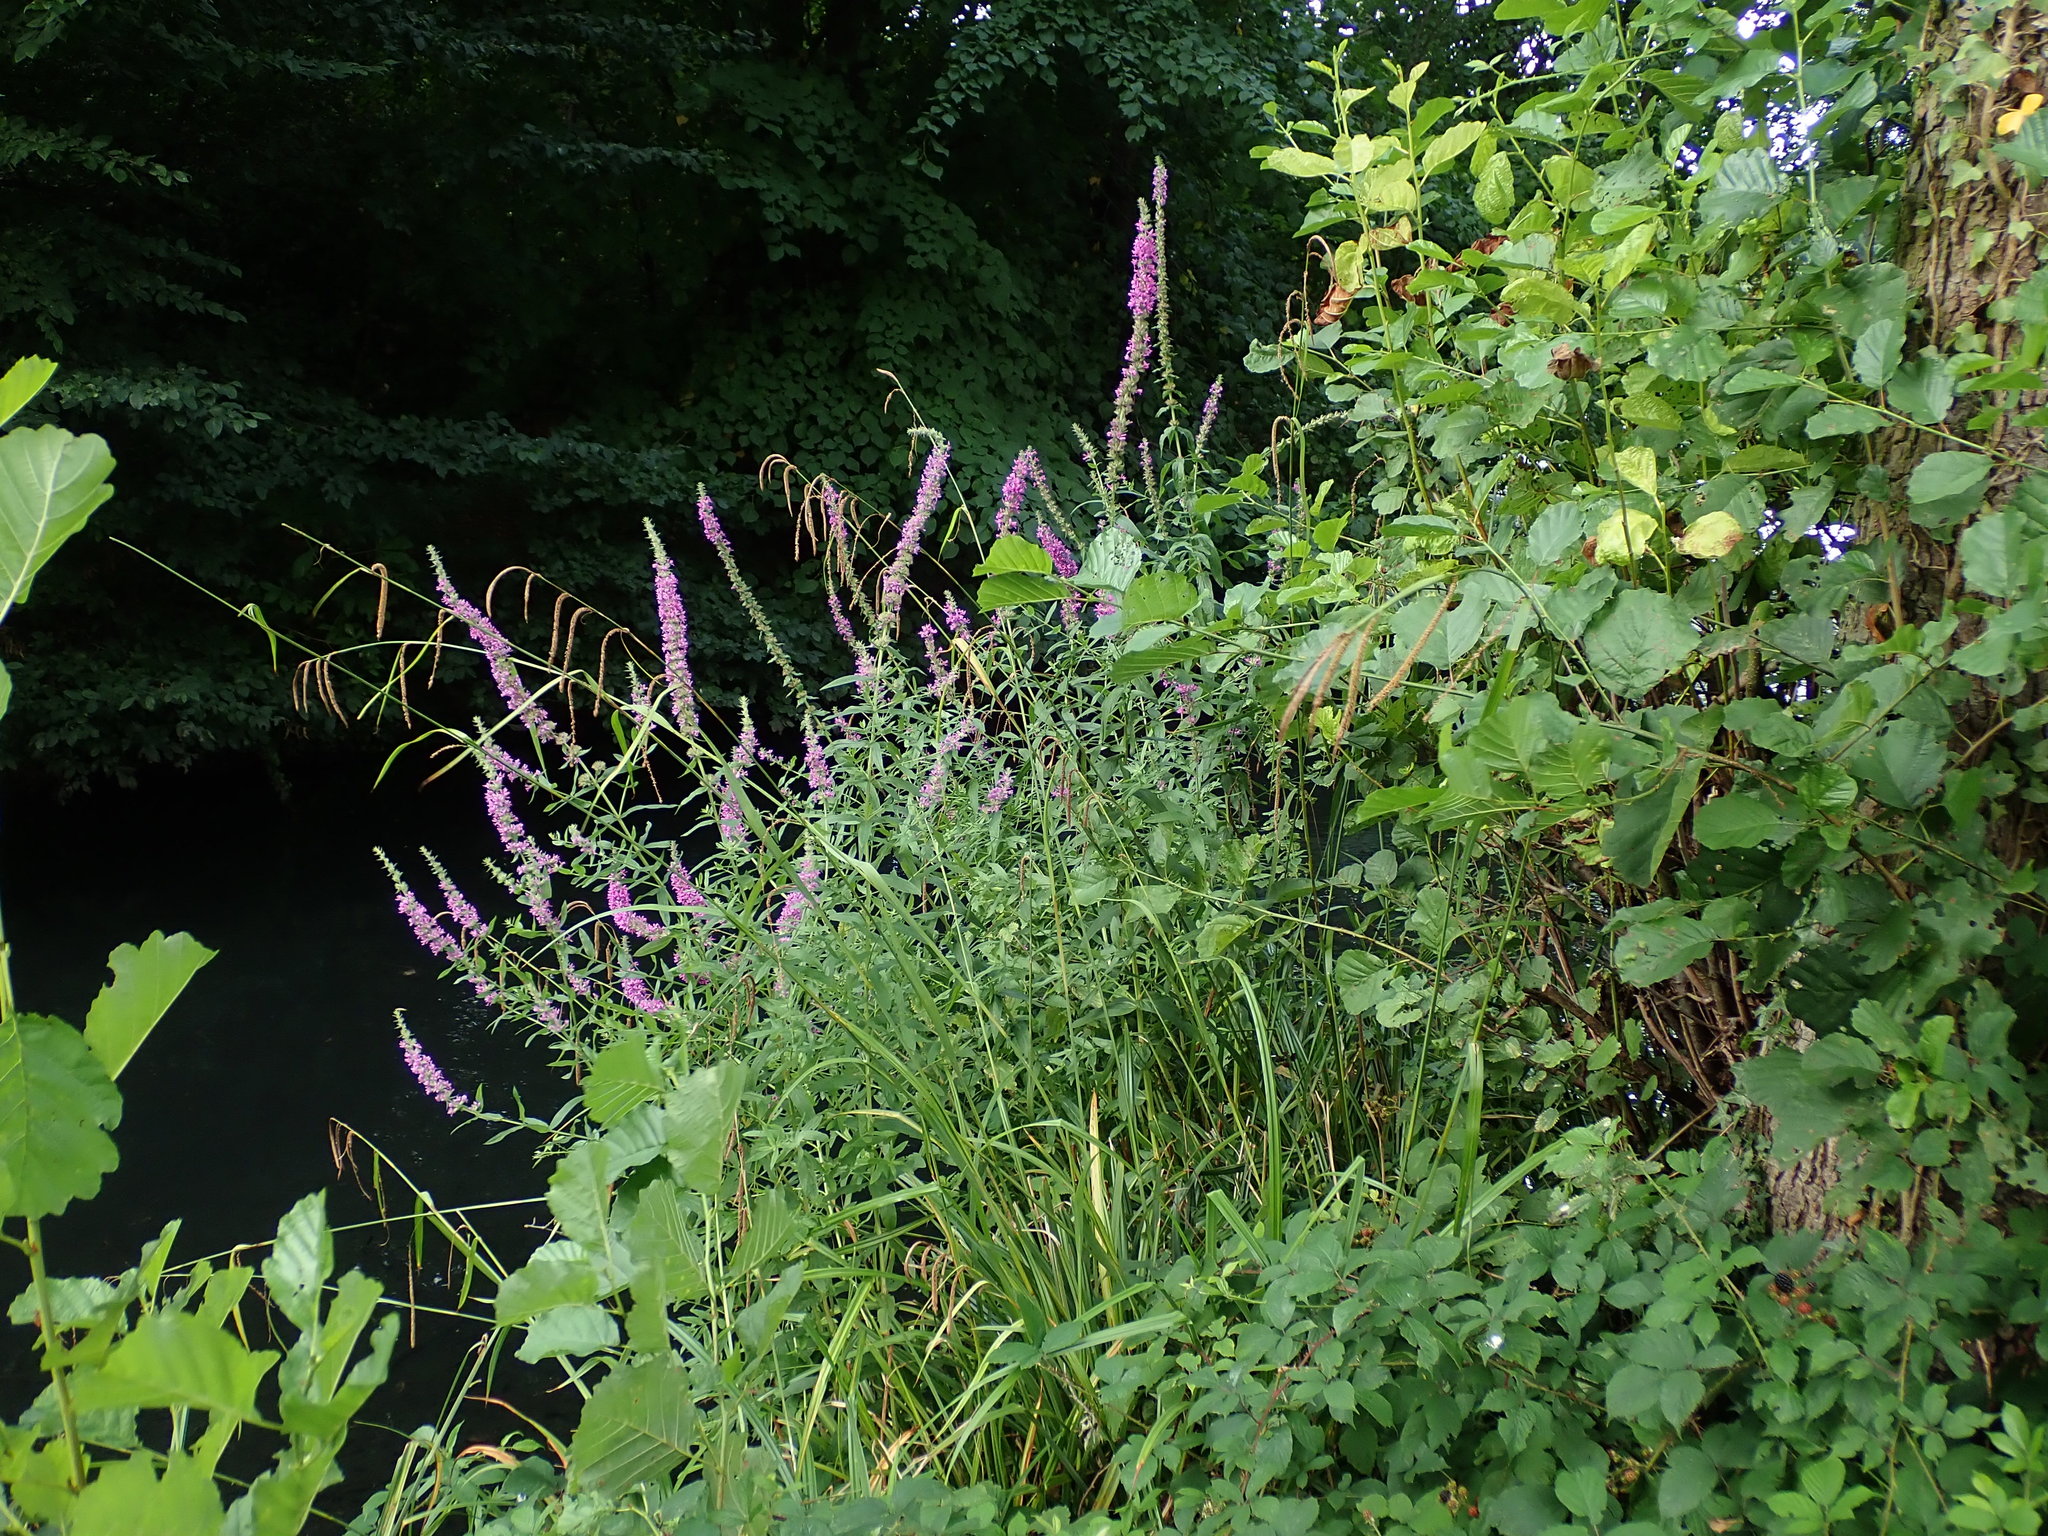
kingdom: Plantae
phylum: Tracheophyta
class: Magnoliopsida
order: Myrtales
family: Lythraceae
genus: Lythrum
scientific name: Lythrum salicaria
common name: Purple loosestrife
